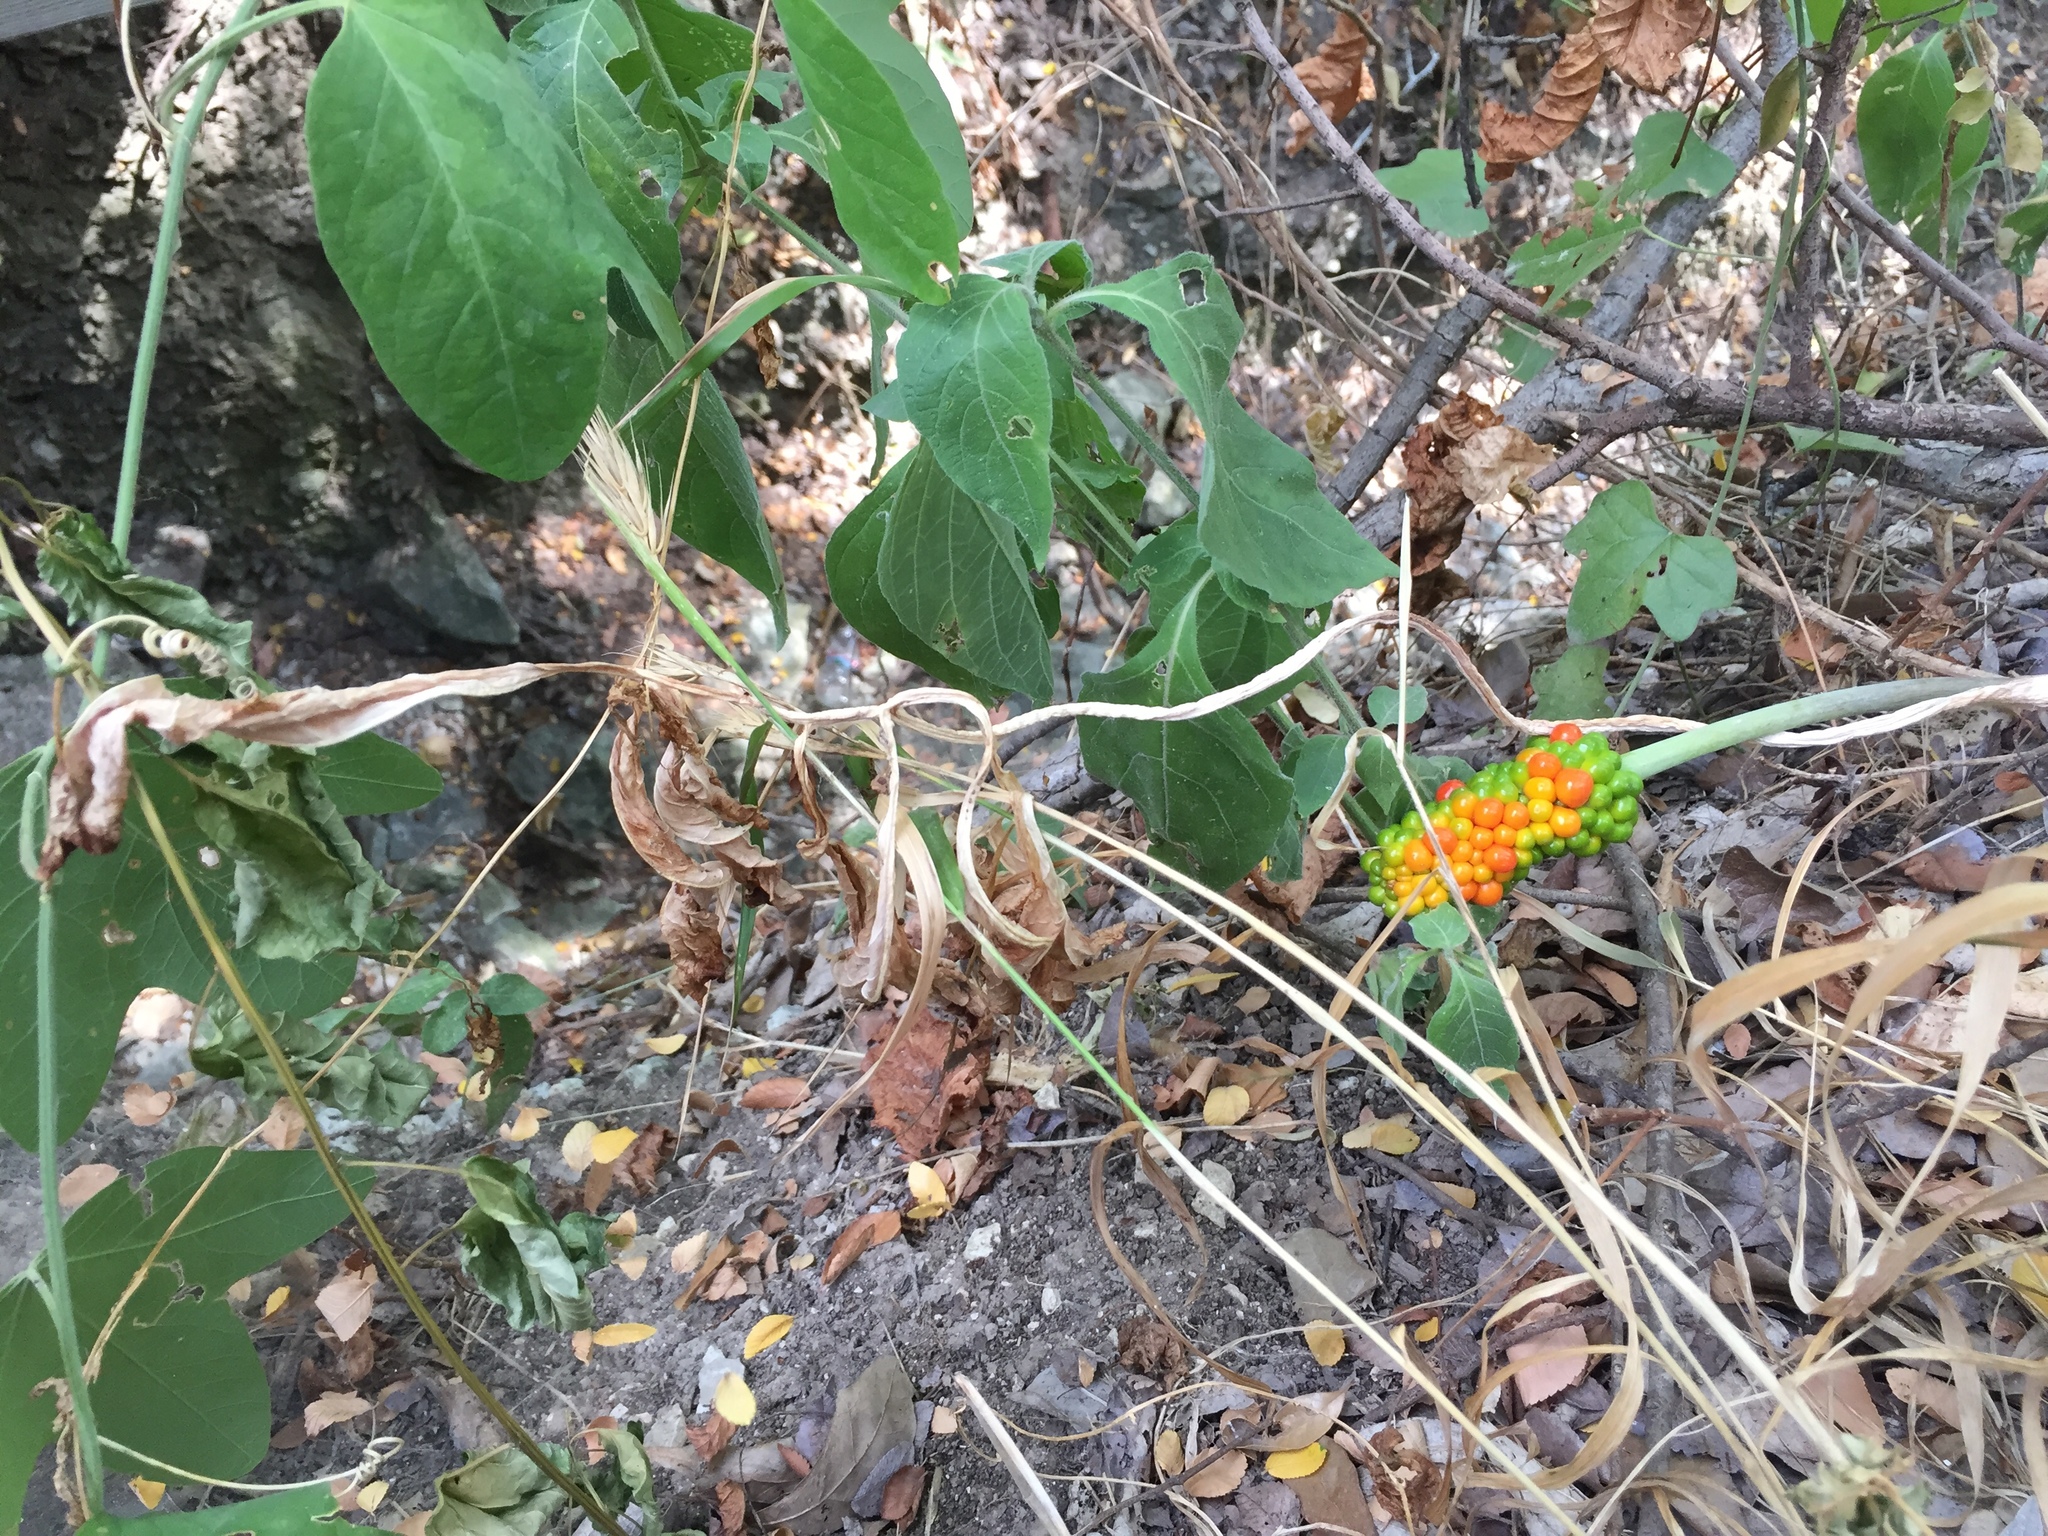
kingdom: Plantae
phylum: Tracheophyta
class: Liliopsida
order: Alismatales
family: Araceae
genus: Arisaema
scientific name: Arisaema dracontium
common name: Dragon-arum
